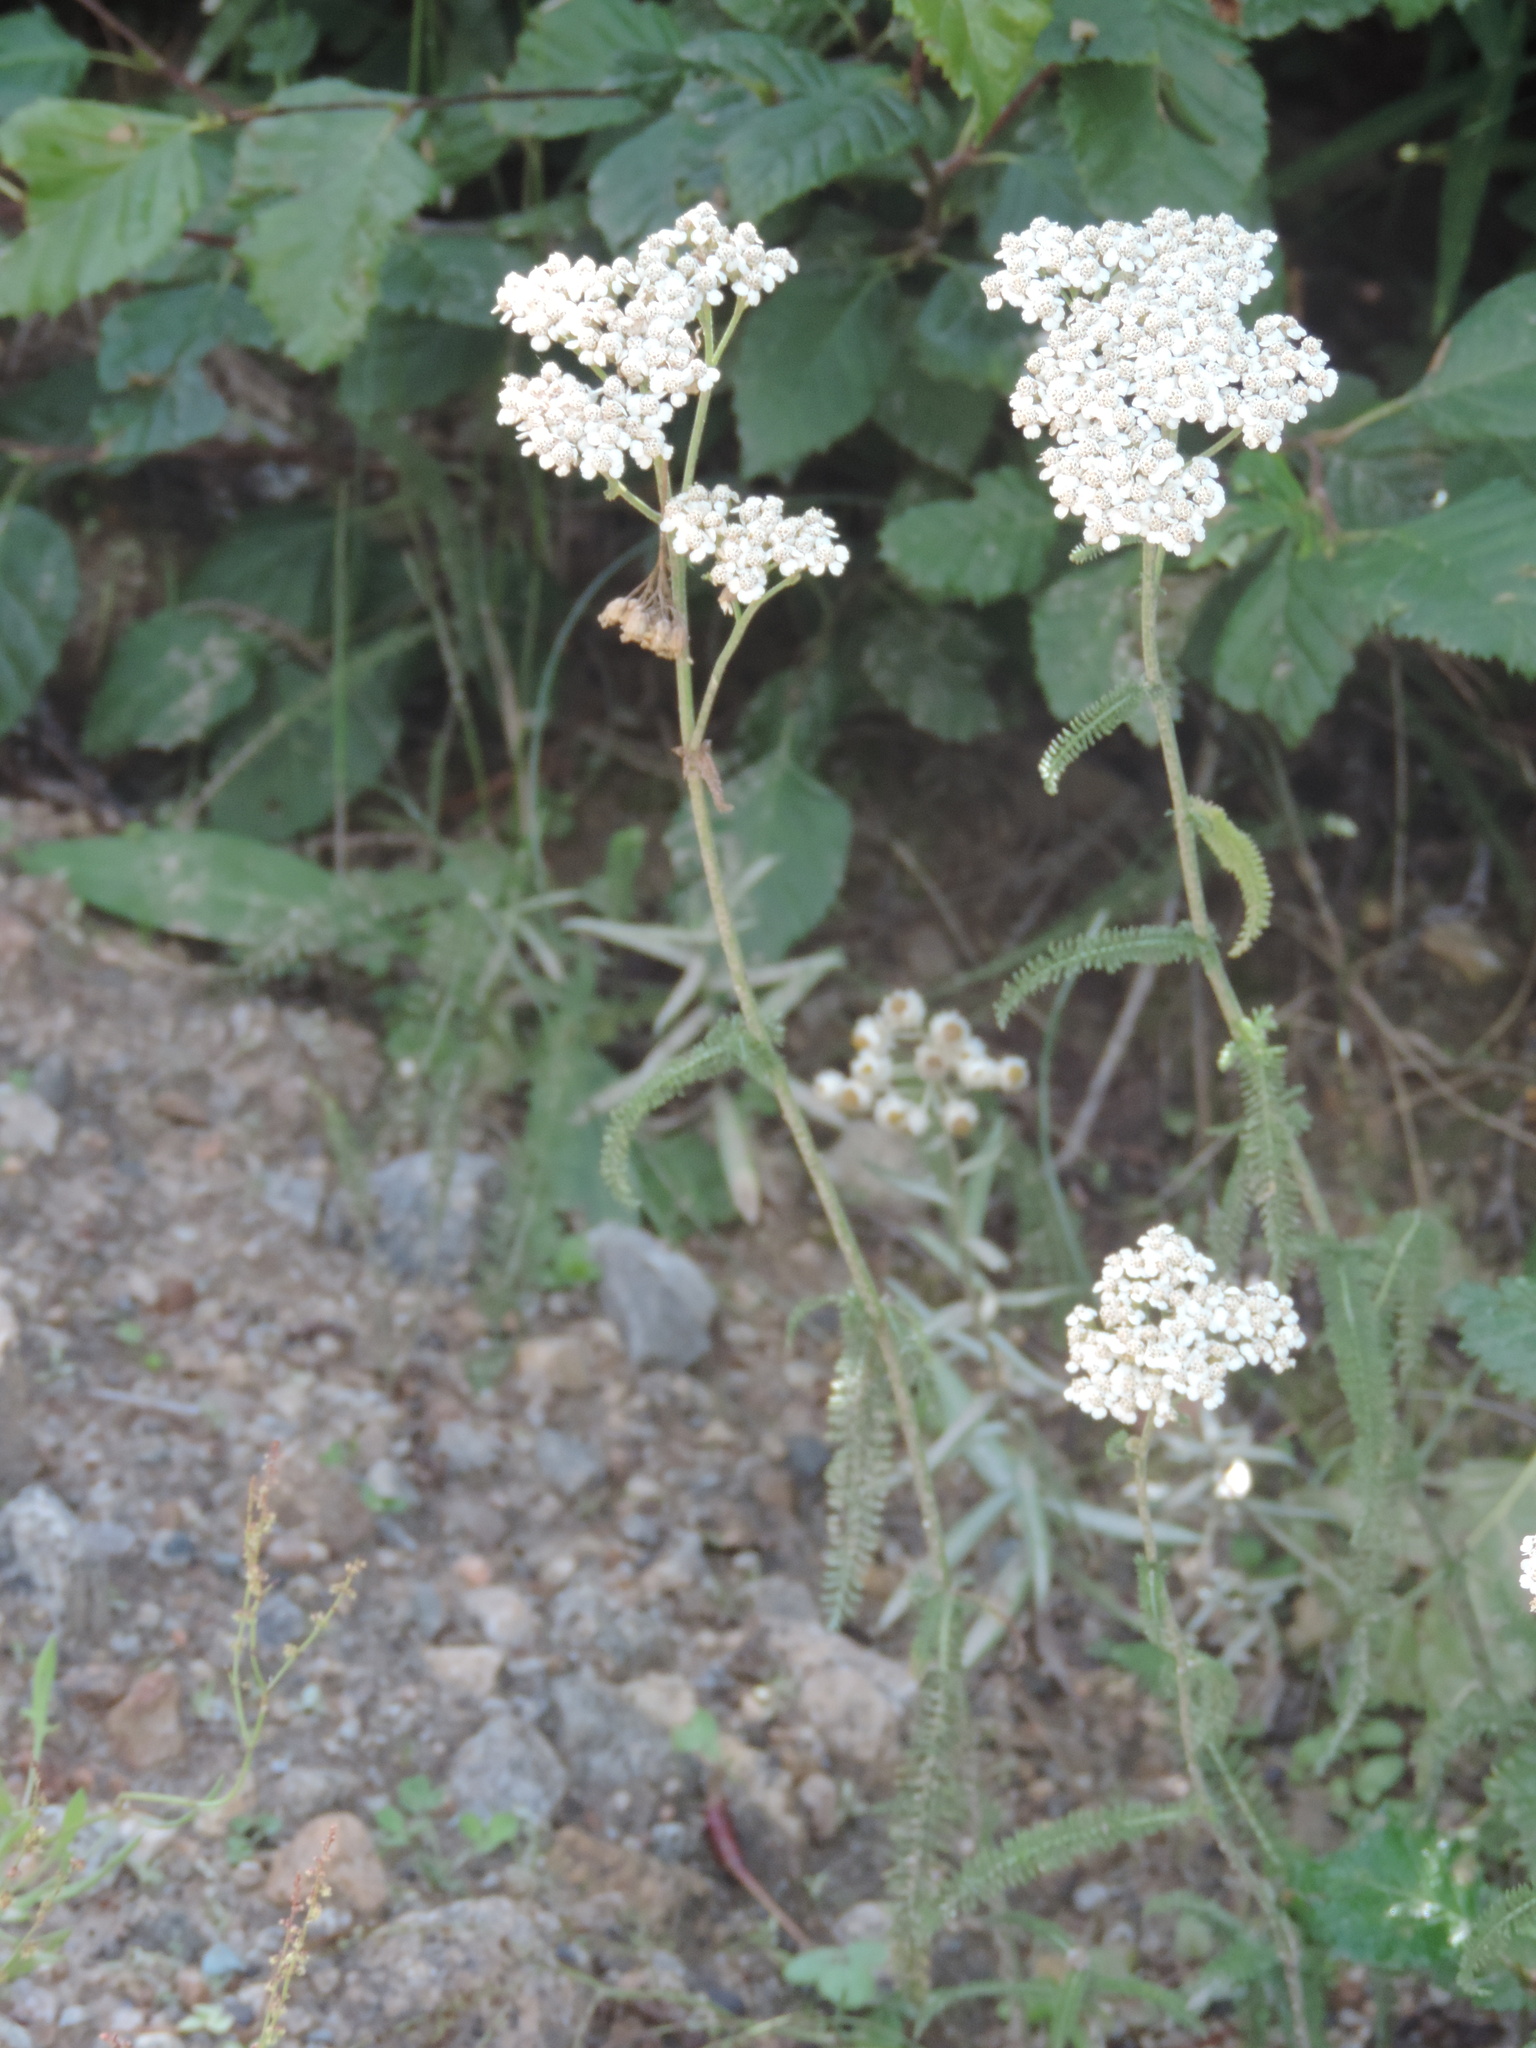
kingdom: Plantae
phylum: Tracheophyta
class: Magnoliopsida
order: Asterales
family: Asteraceae
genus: Achillea
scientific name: Achillea millefolium
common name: Yarrow
